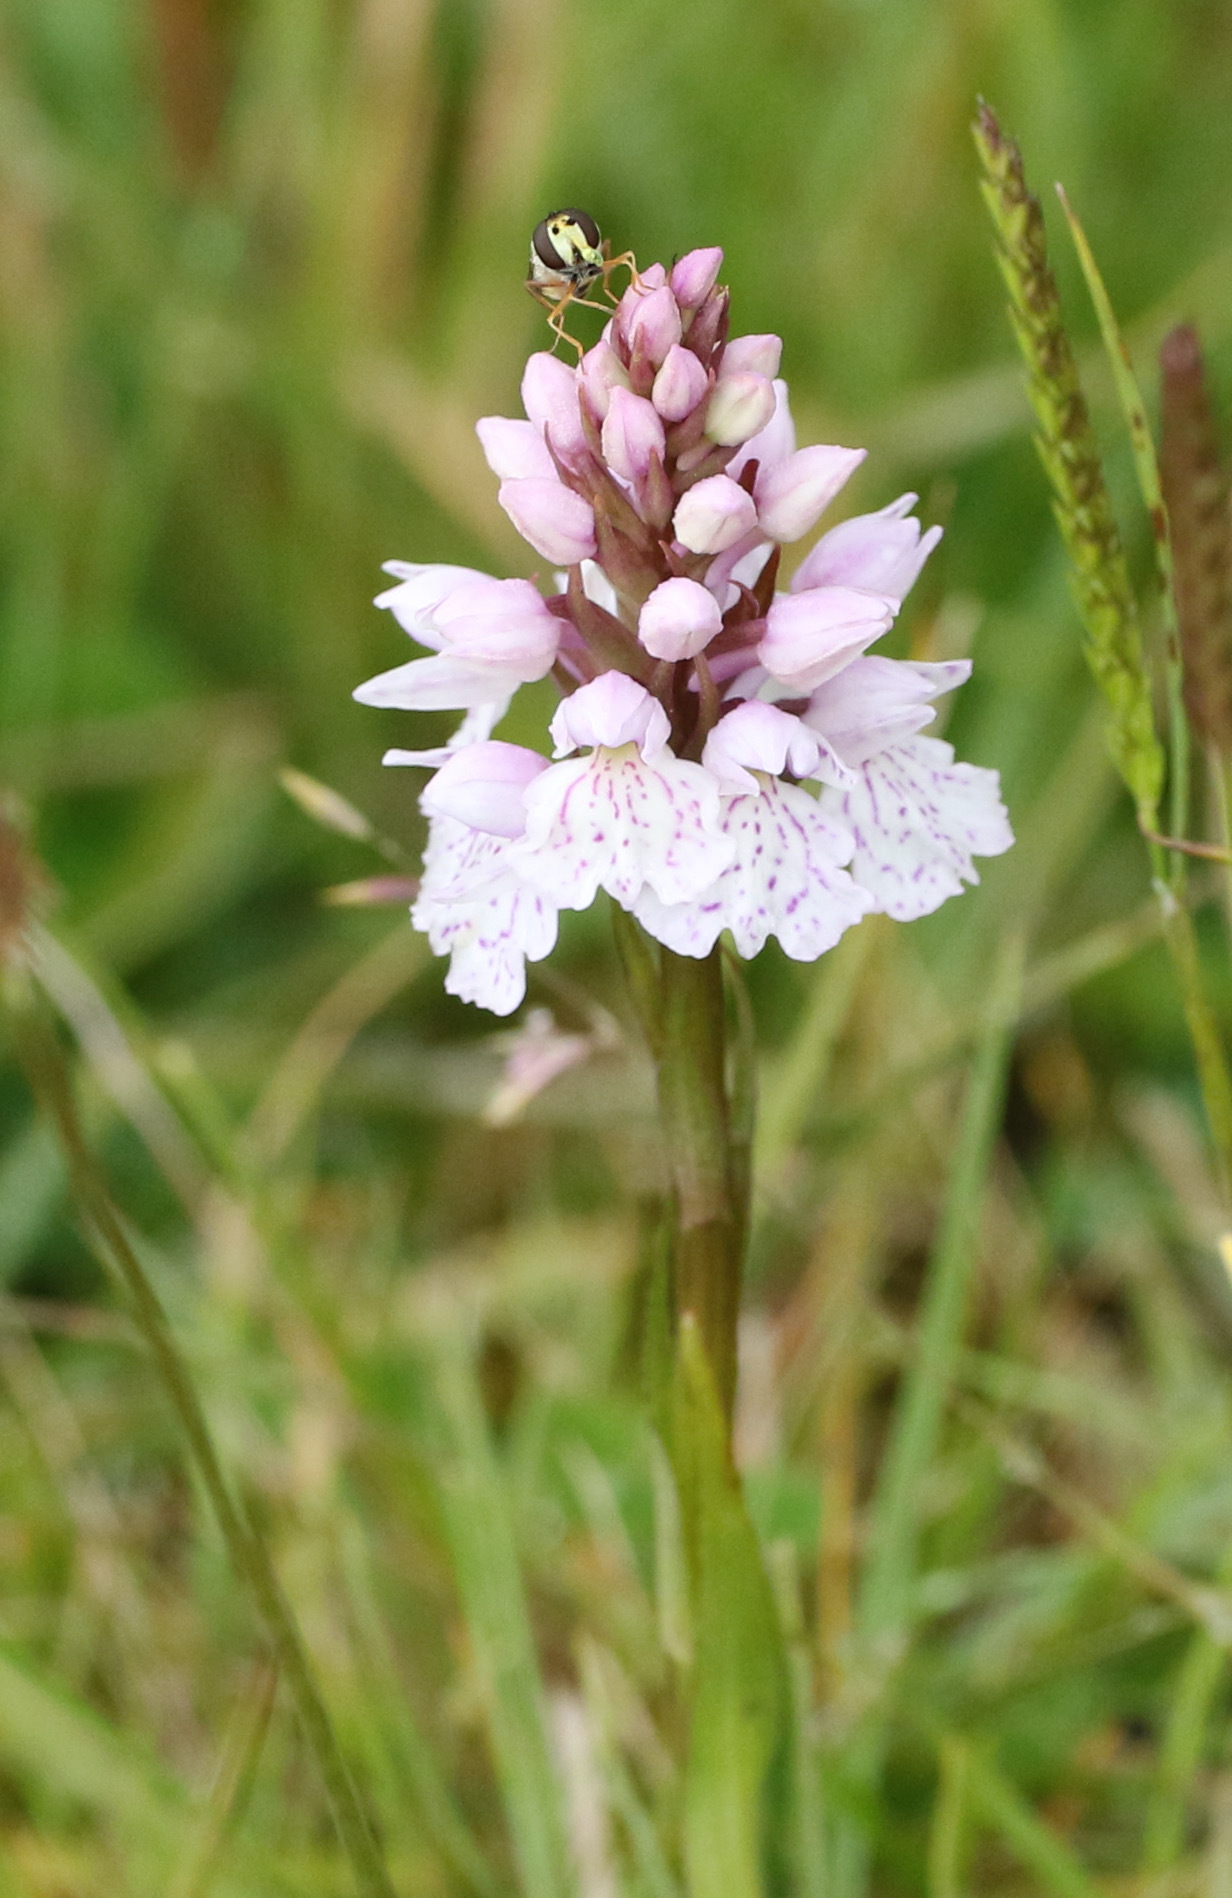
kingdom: Plantae
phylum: Tracheophyta
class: Liliopsida
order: Asparagales
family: Orchidaceae
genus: Dactylorhiza
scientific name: Dactylorhiza maculata
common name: Heath spotted-orchid
